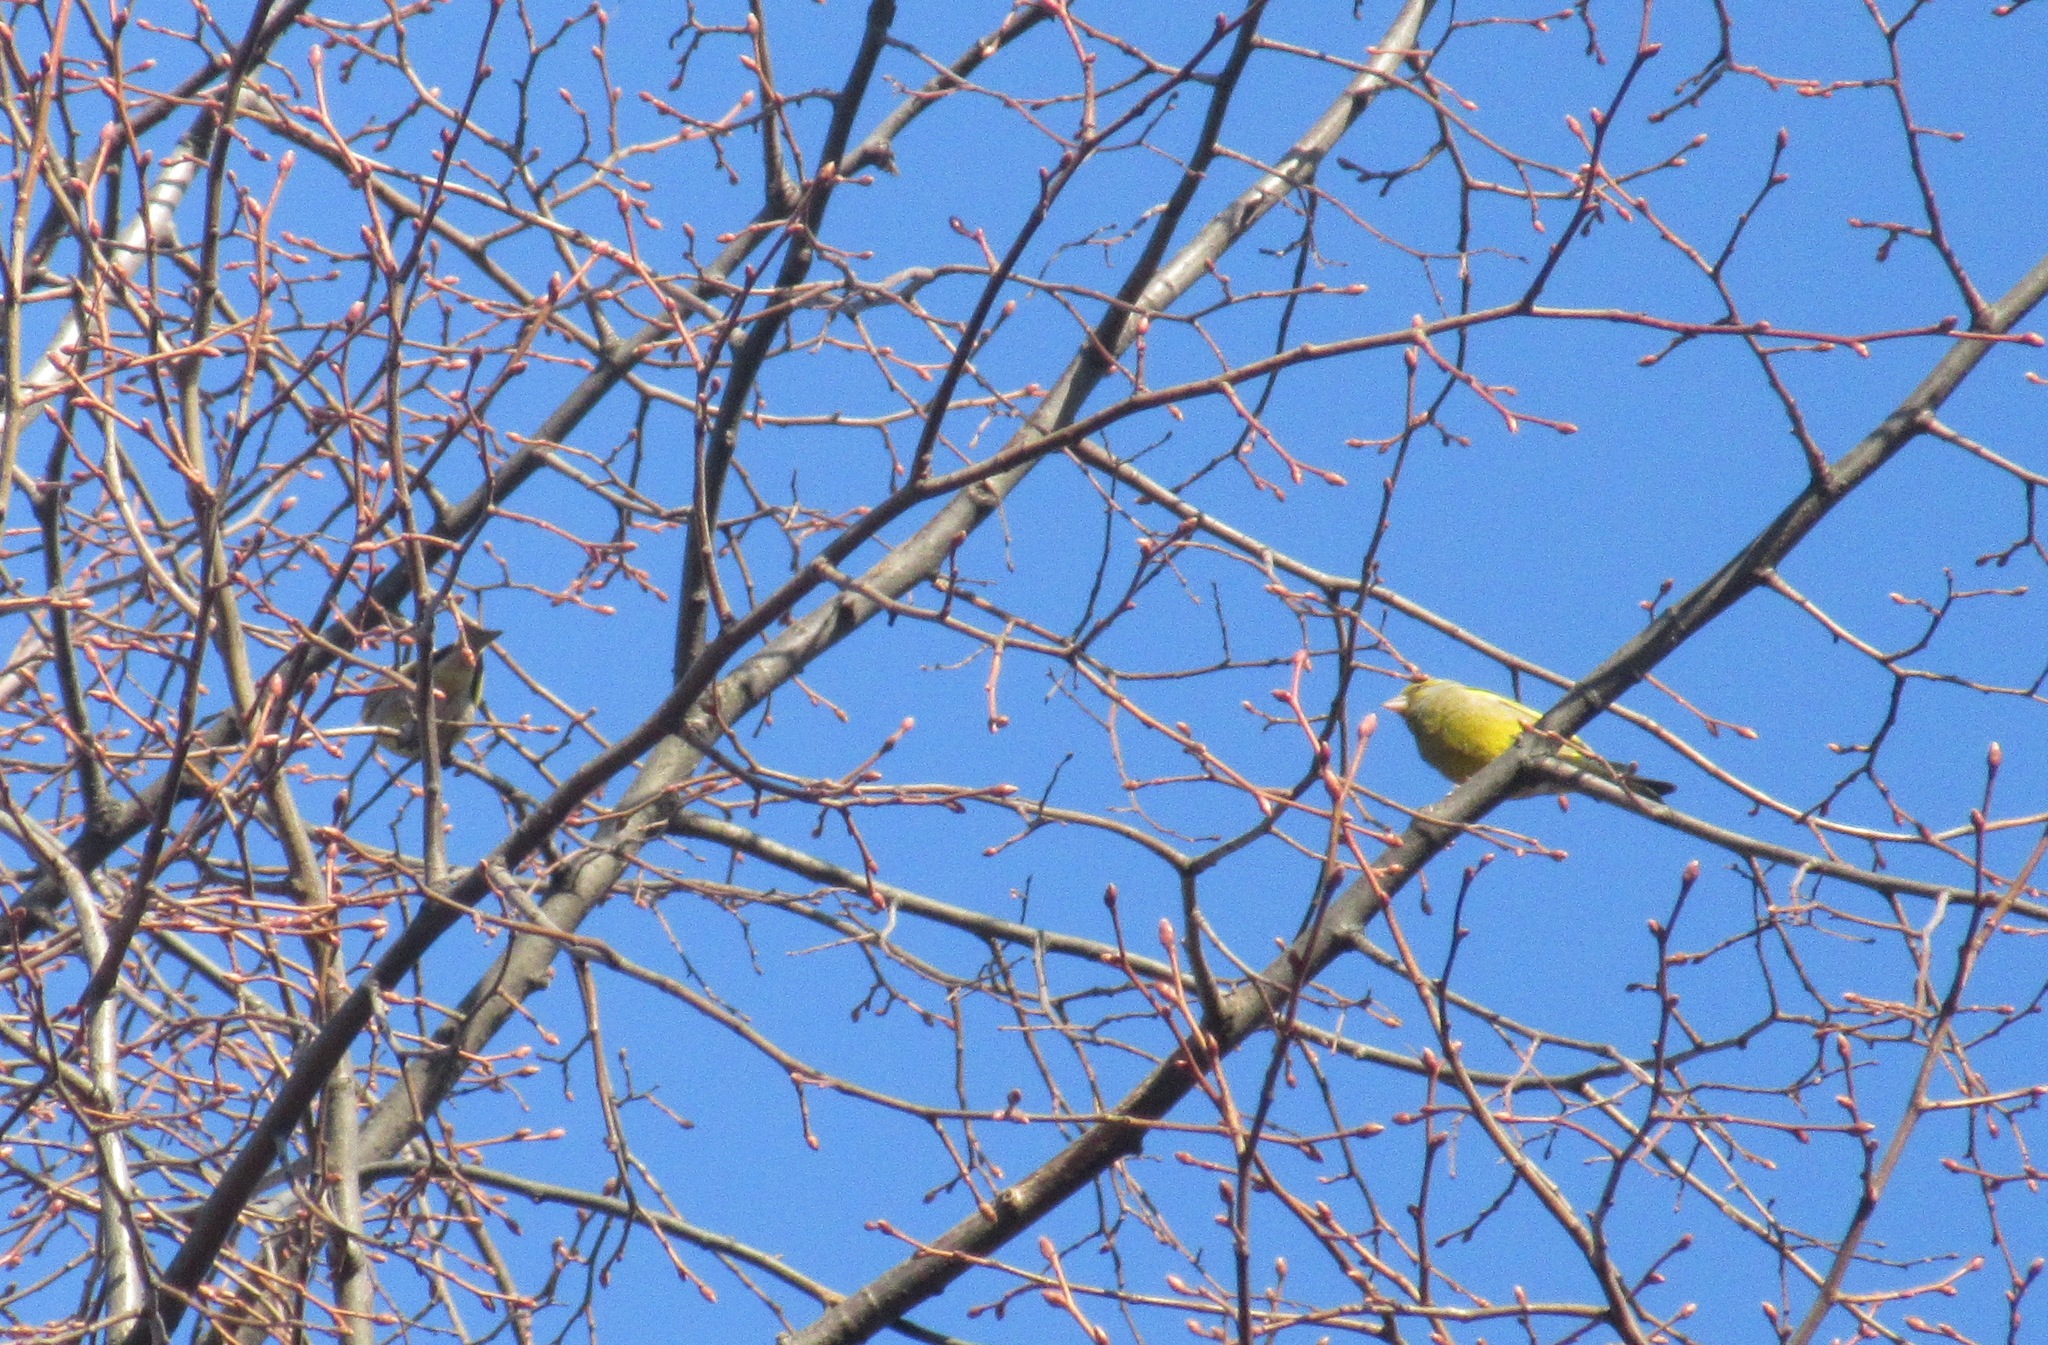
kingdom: Plantae
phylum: Tracheophyta
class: Liliopsida
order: Poales
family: Poaceae
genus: Chloris
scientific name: Chloris chloris
